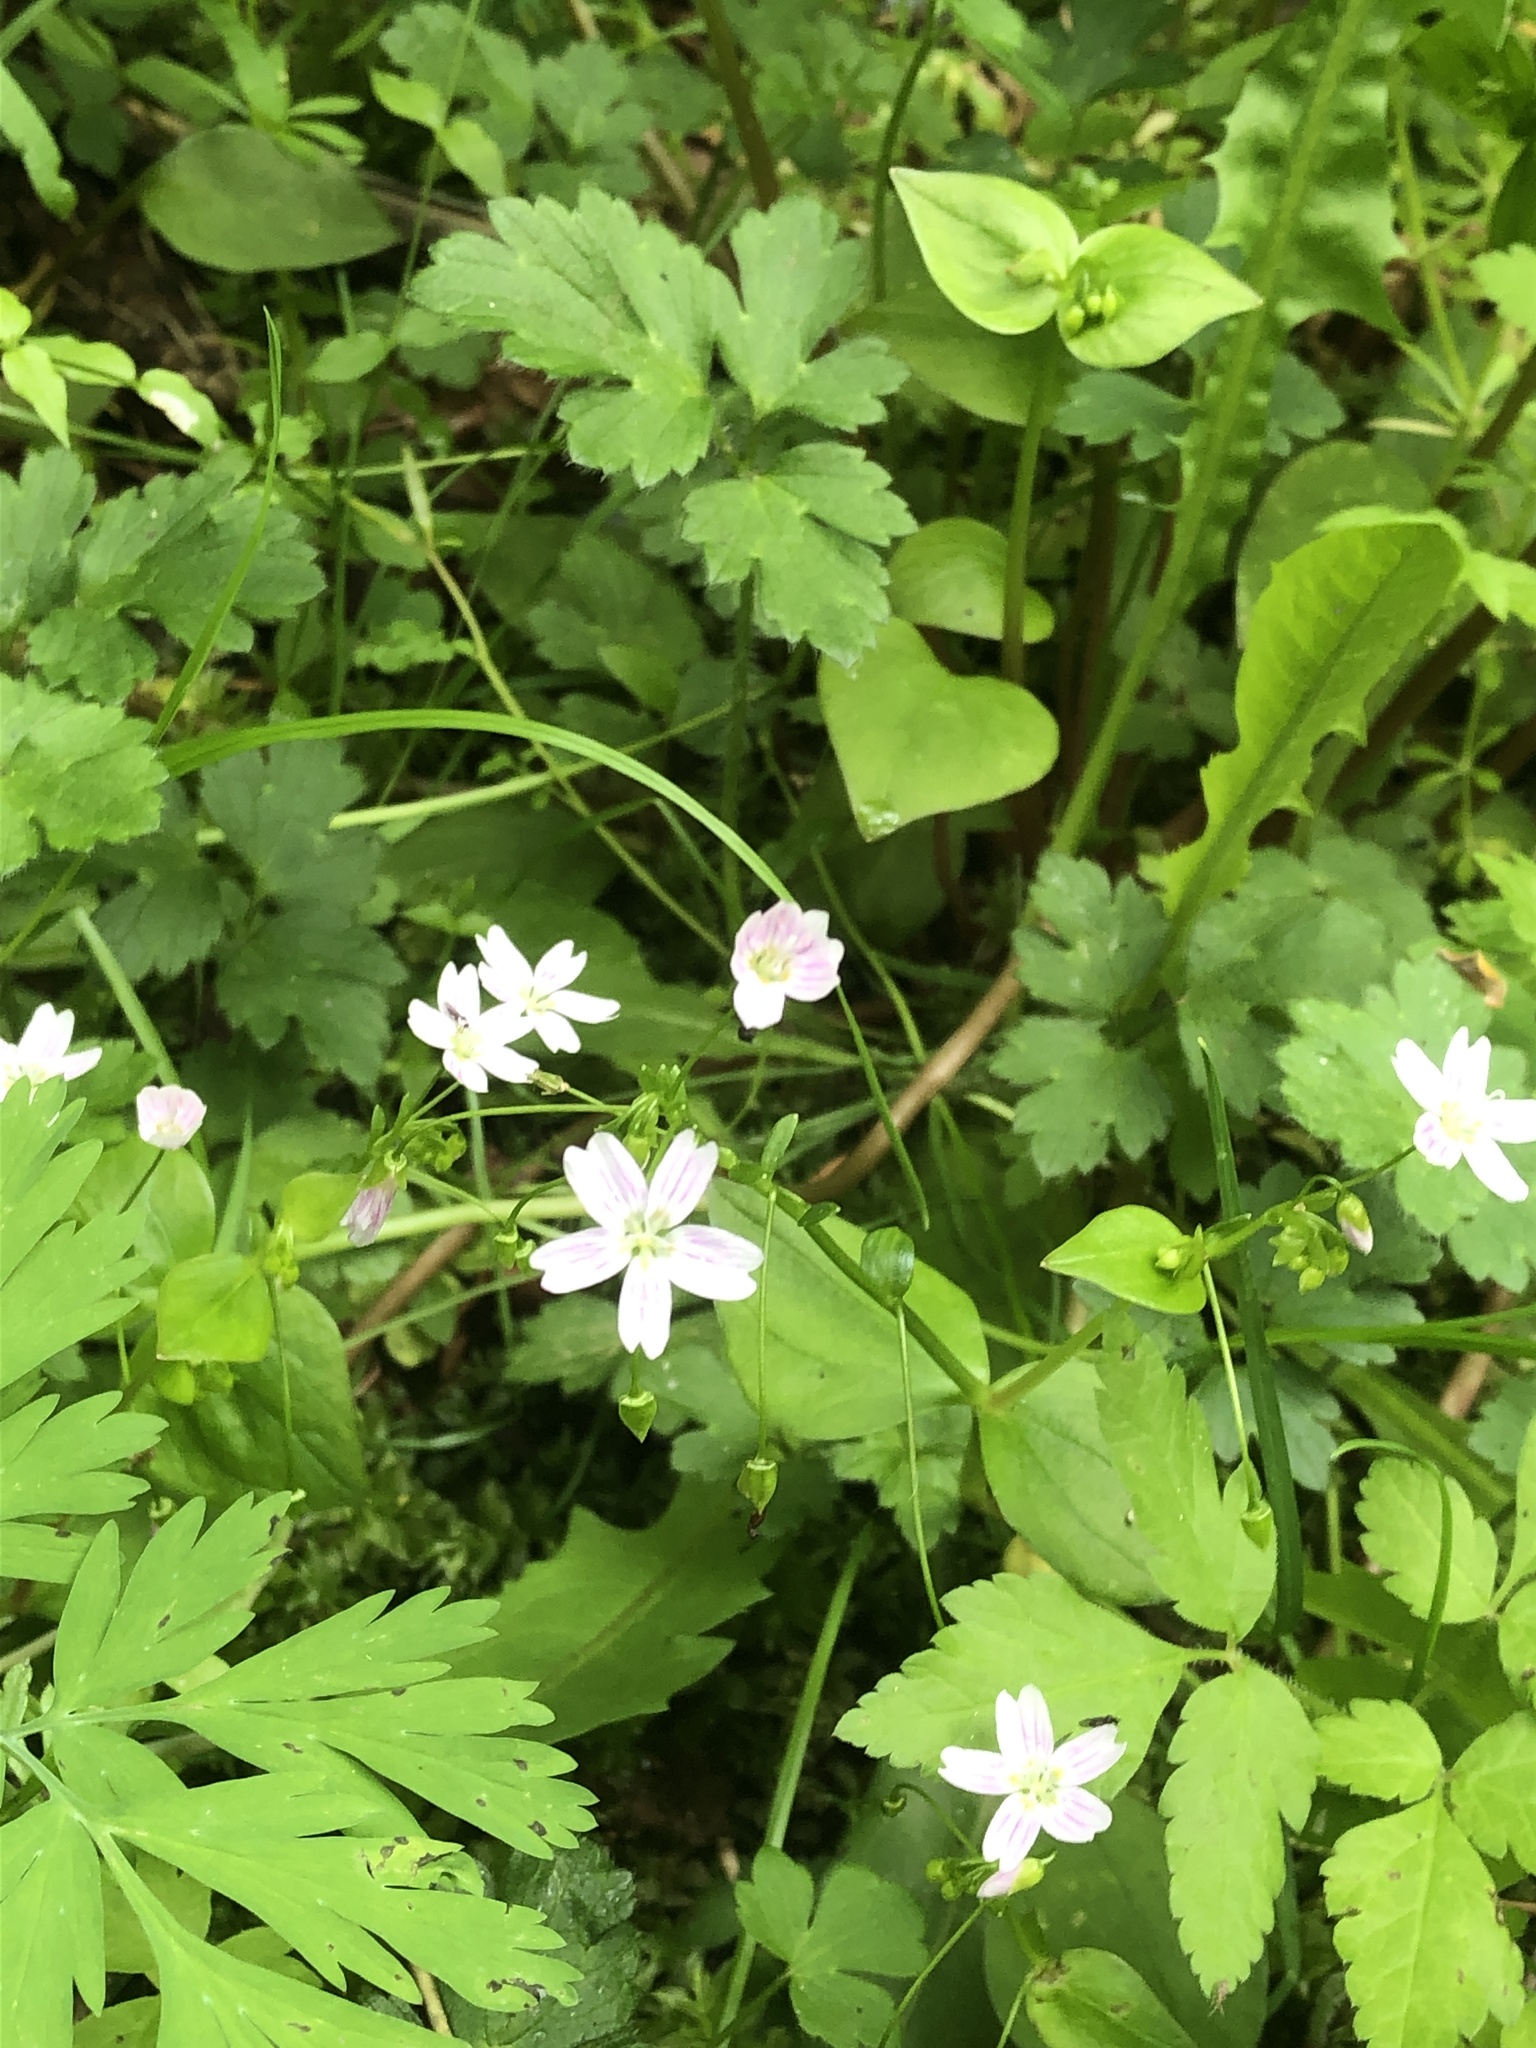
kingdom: Plantae
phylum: Tracheophyta
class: Magnoliopsida
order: Caryophyllales
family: Montiaceae
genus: Claytonia
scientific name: Claytonia sibirica
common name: Pink purslane
